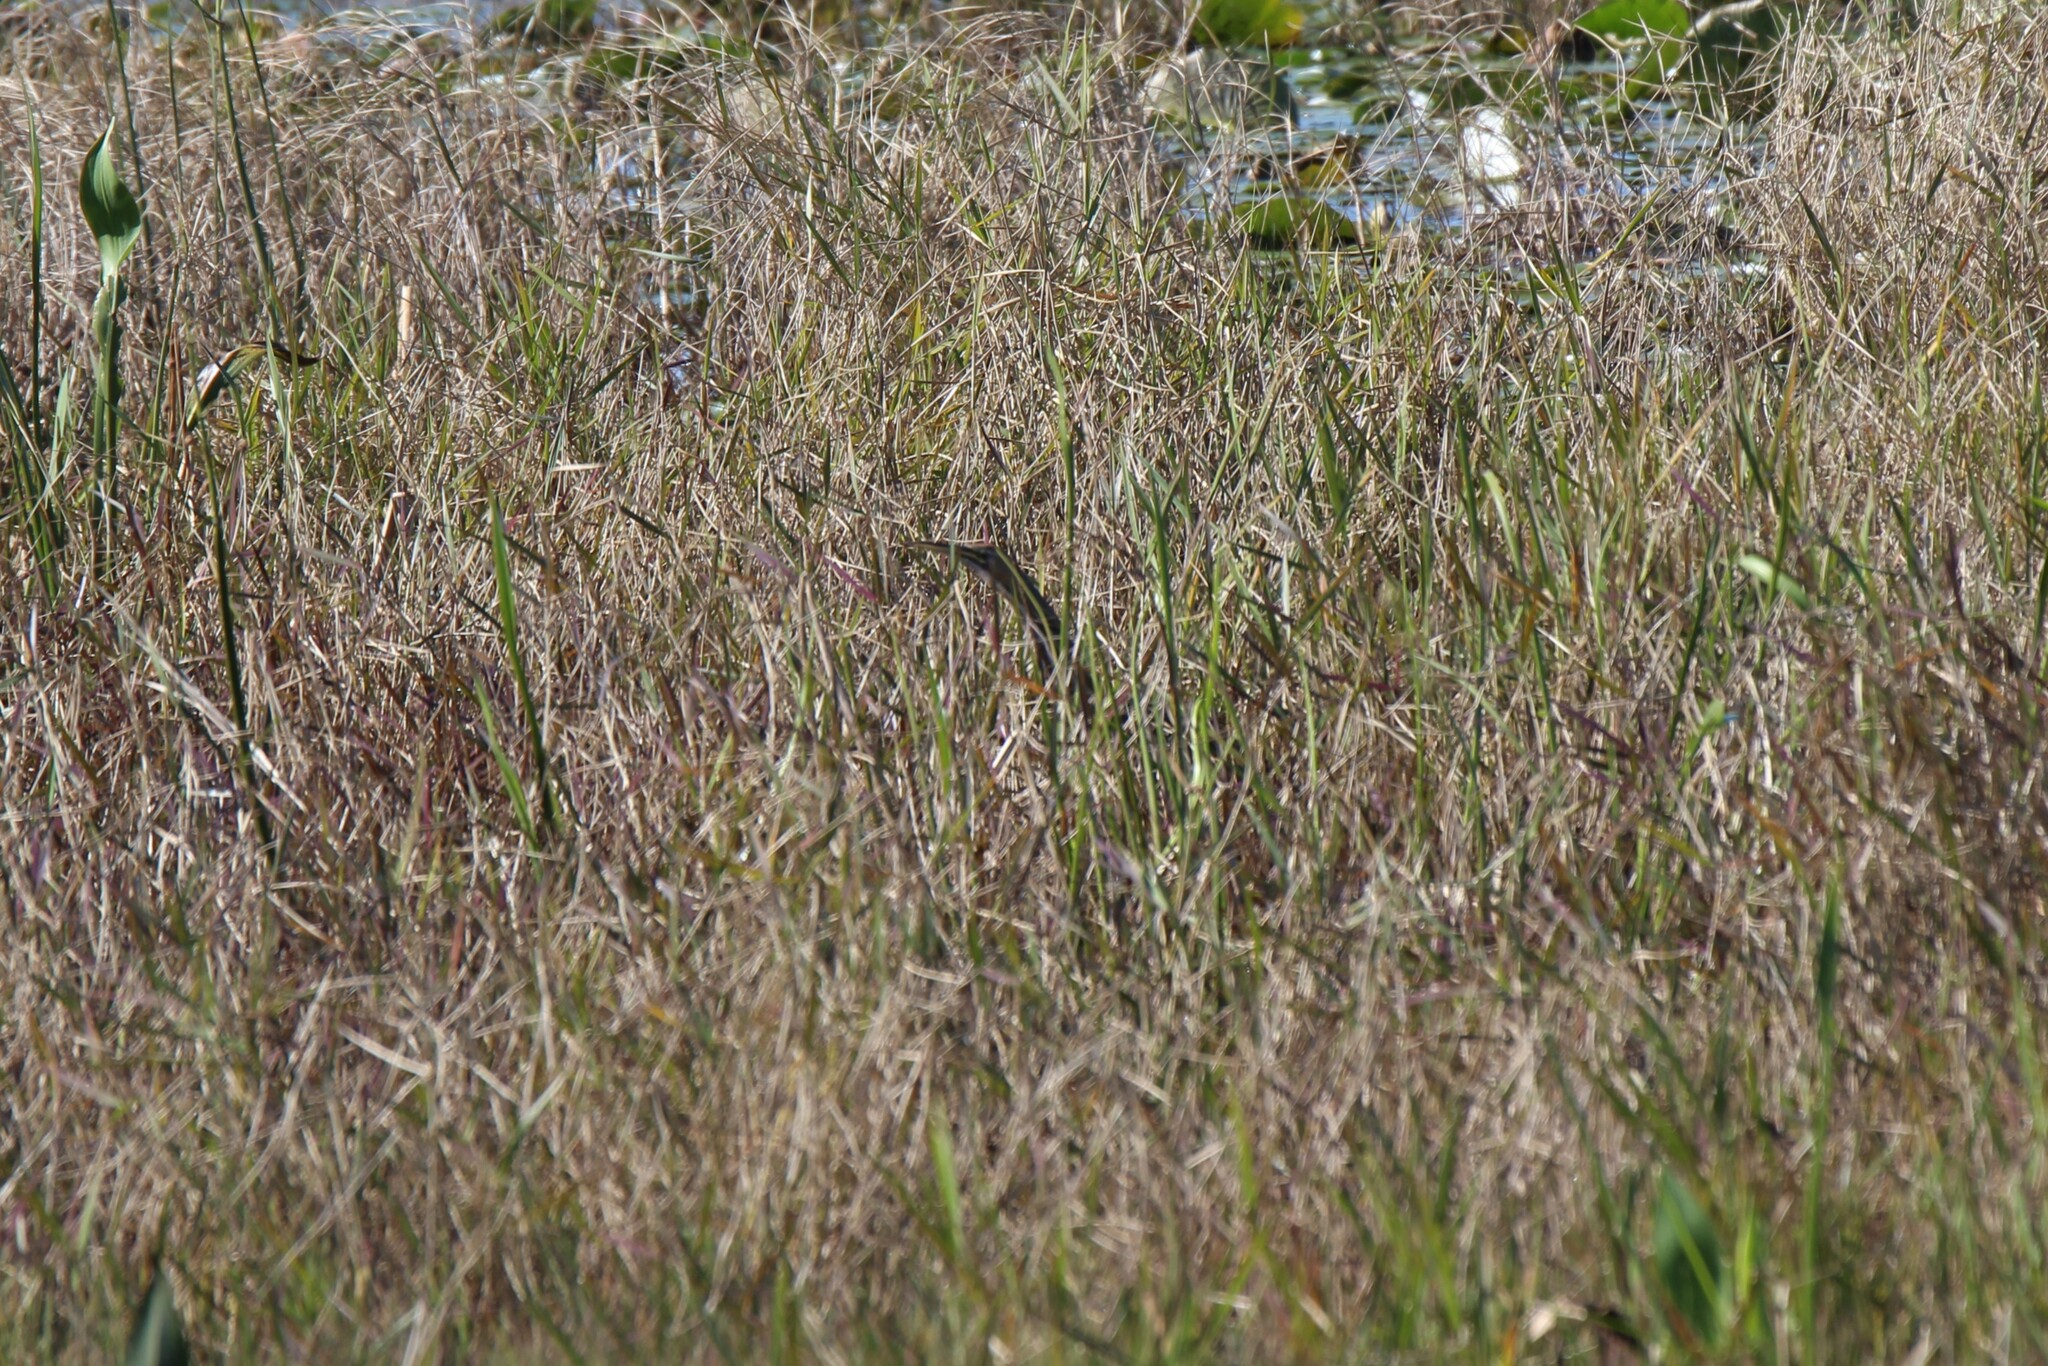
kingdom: Animalia
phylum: Chordata
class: Aves
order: Pelecaniformes
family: Ardeidae
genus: Botaurus
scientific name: Botaurus lentiginosus
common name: American bittern
